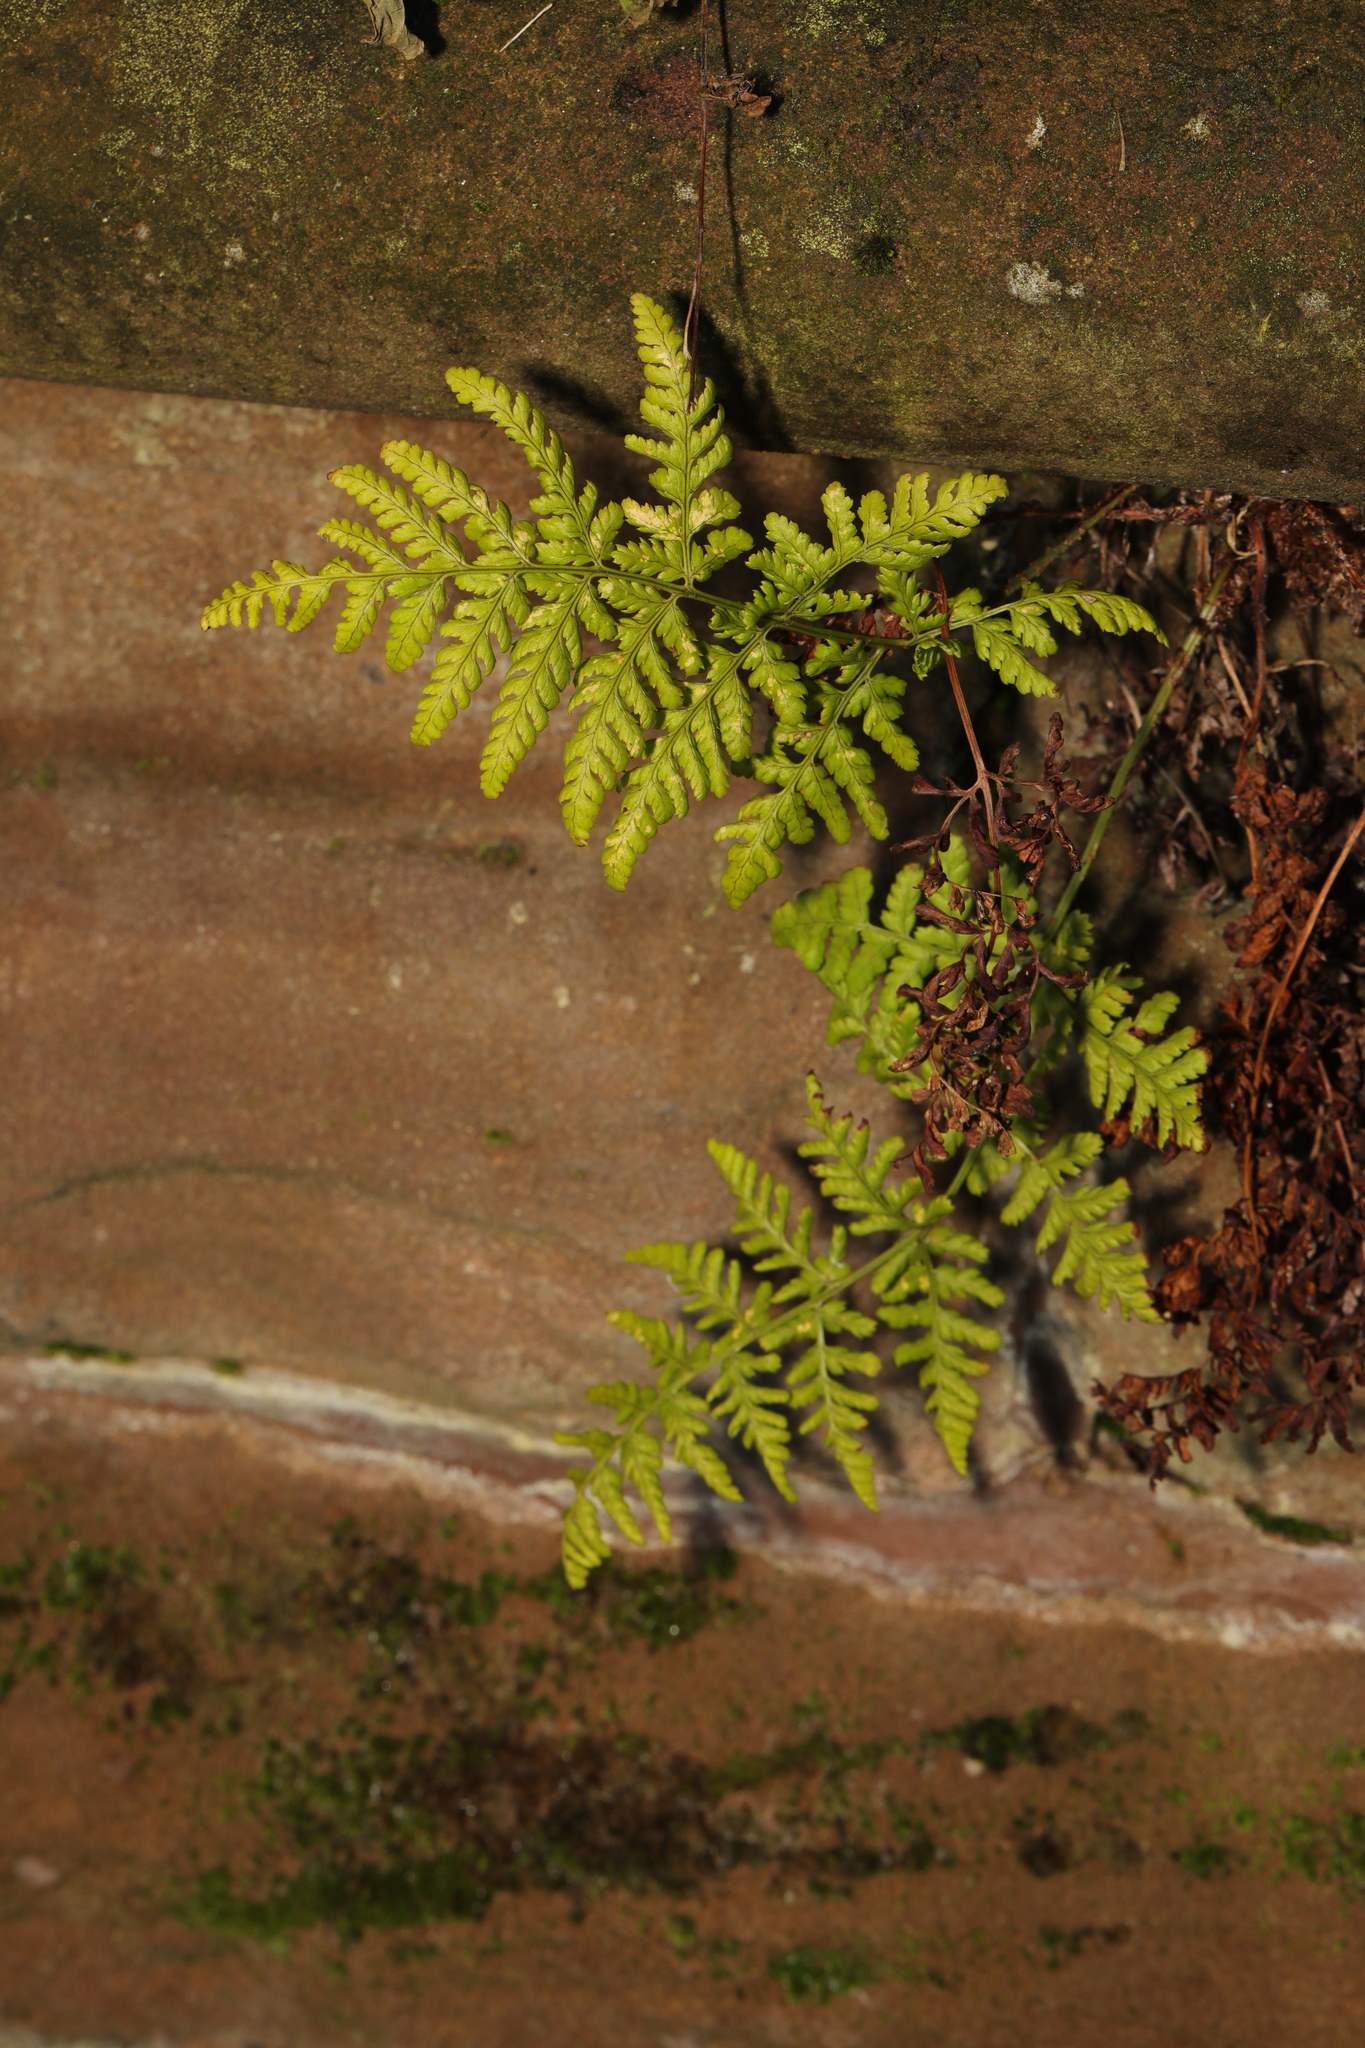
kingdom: Plantae
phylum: Tracheophyta
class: Polypodiopsida
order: Polypodiales
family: Dryopteridaceae
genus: Dryopteris
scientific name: Dryopteris dilatata
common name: Broad buckler-fern
